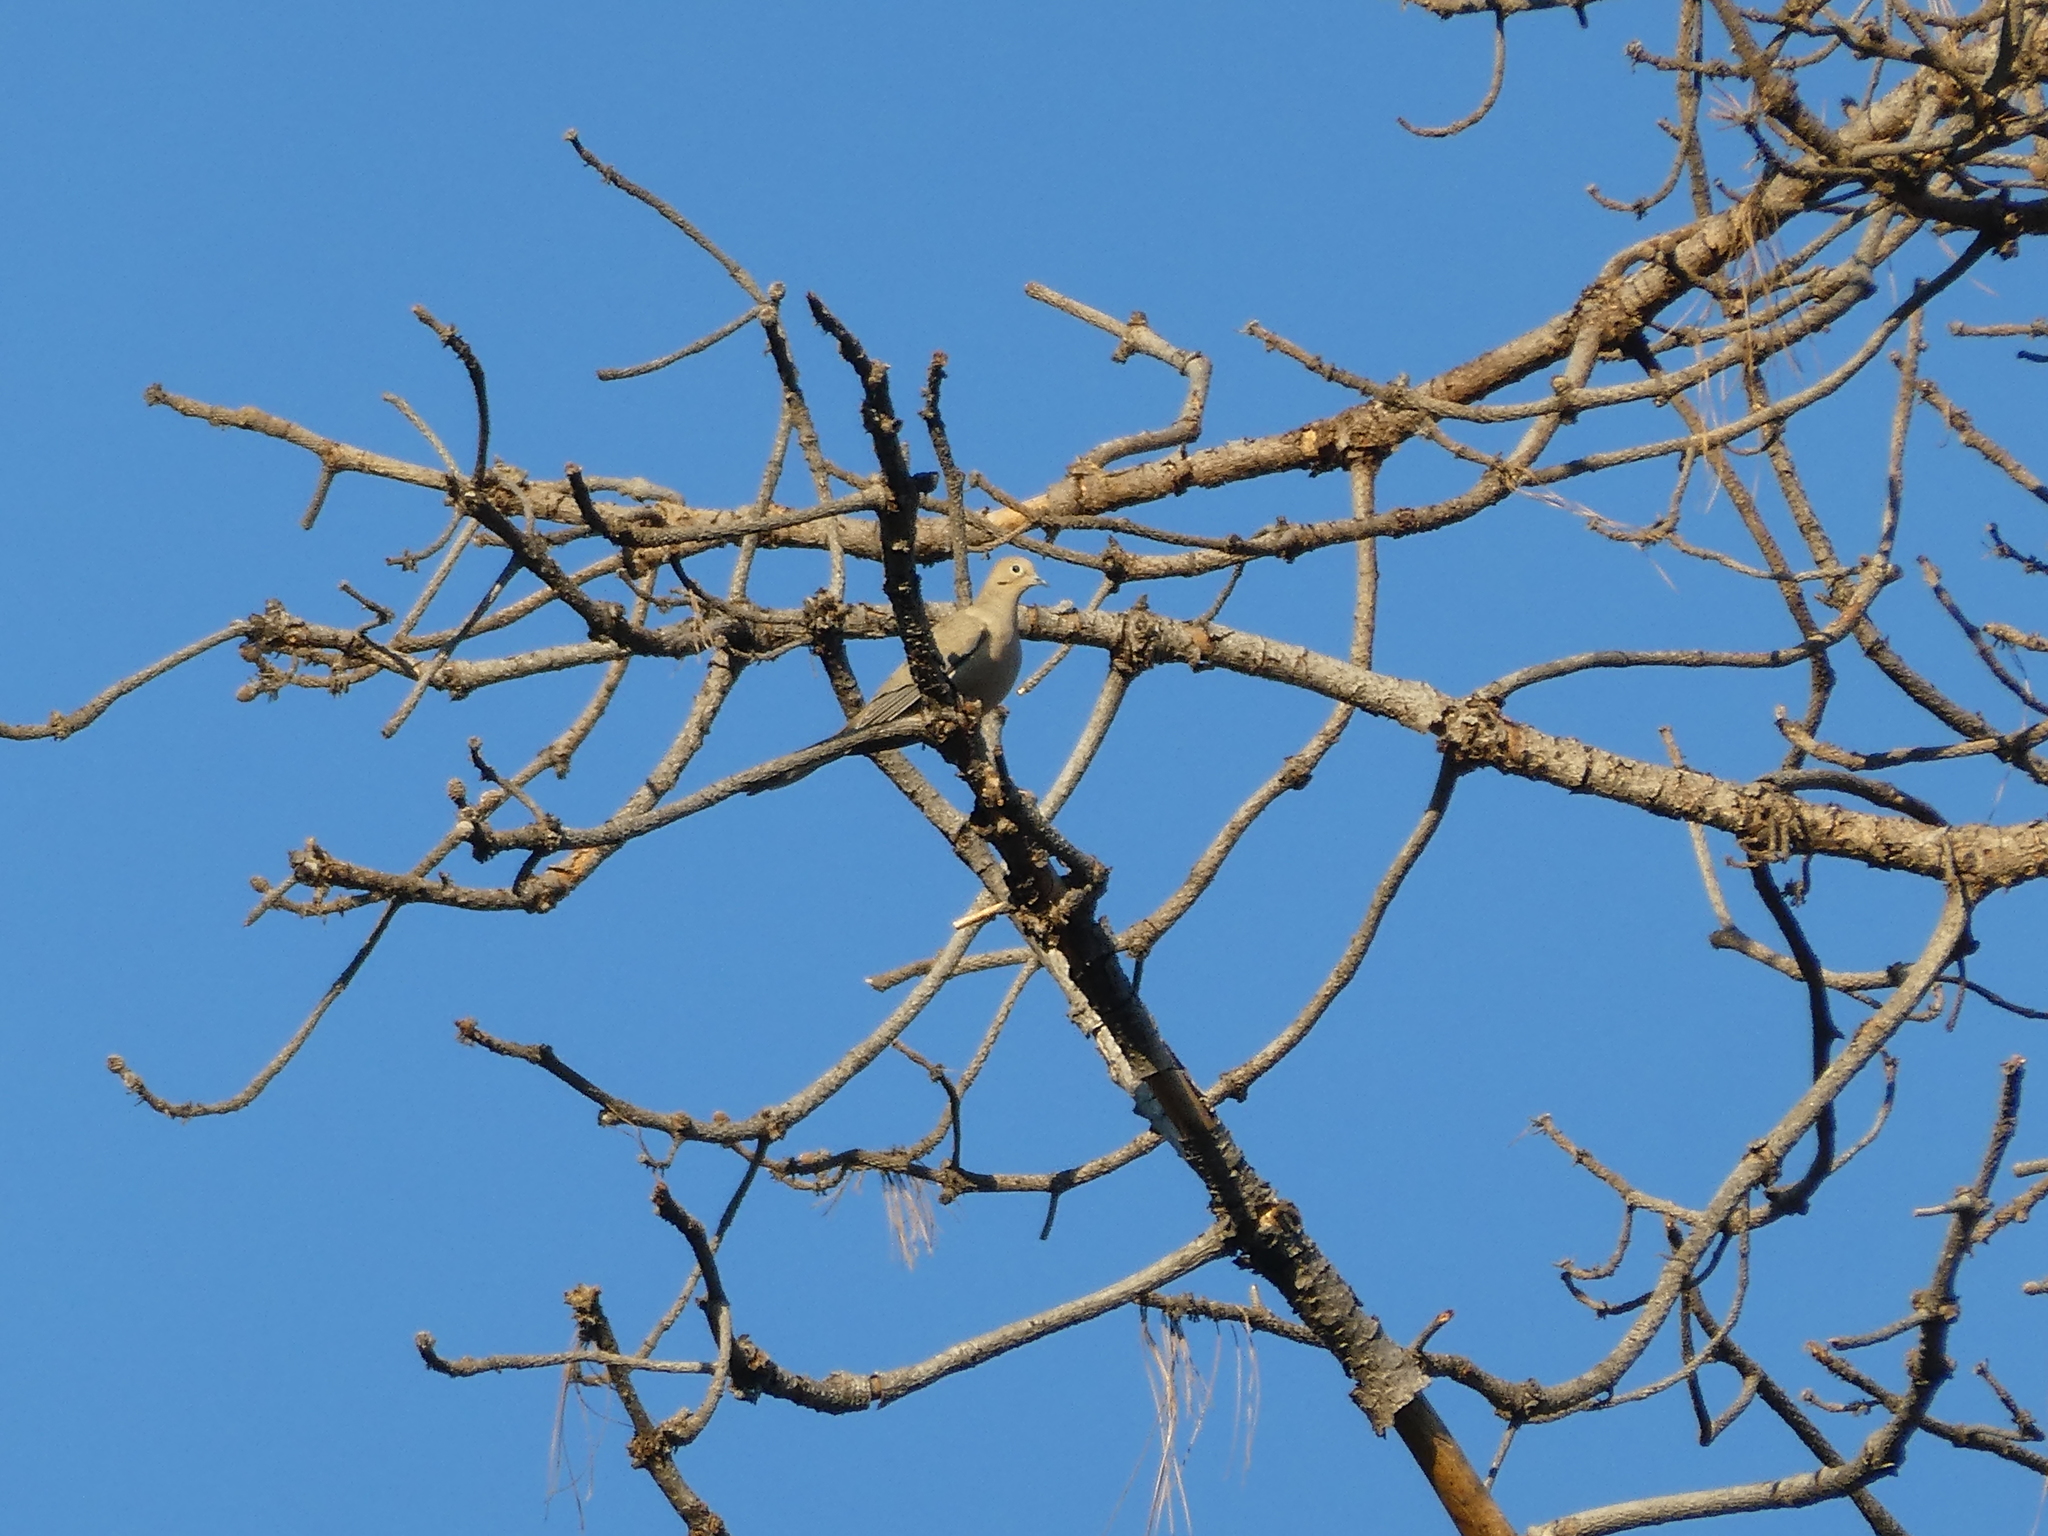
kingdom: Animalia
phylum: Chordata
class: Aves
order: Columbiformes
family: Columbidae
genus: Zenaida
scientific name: Zenaida macroura
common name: Mourning dove
